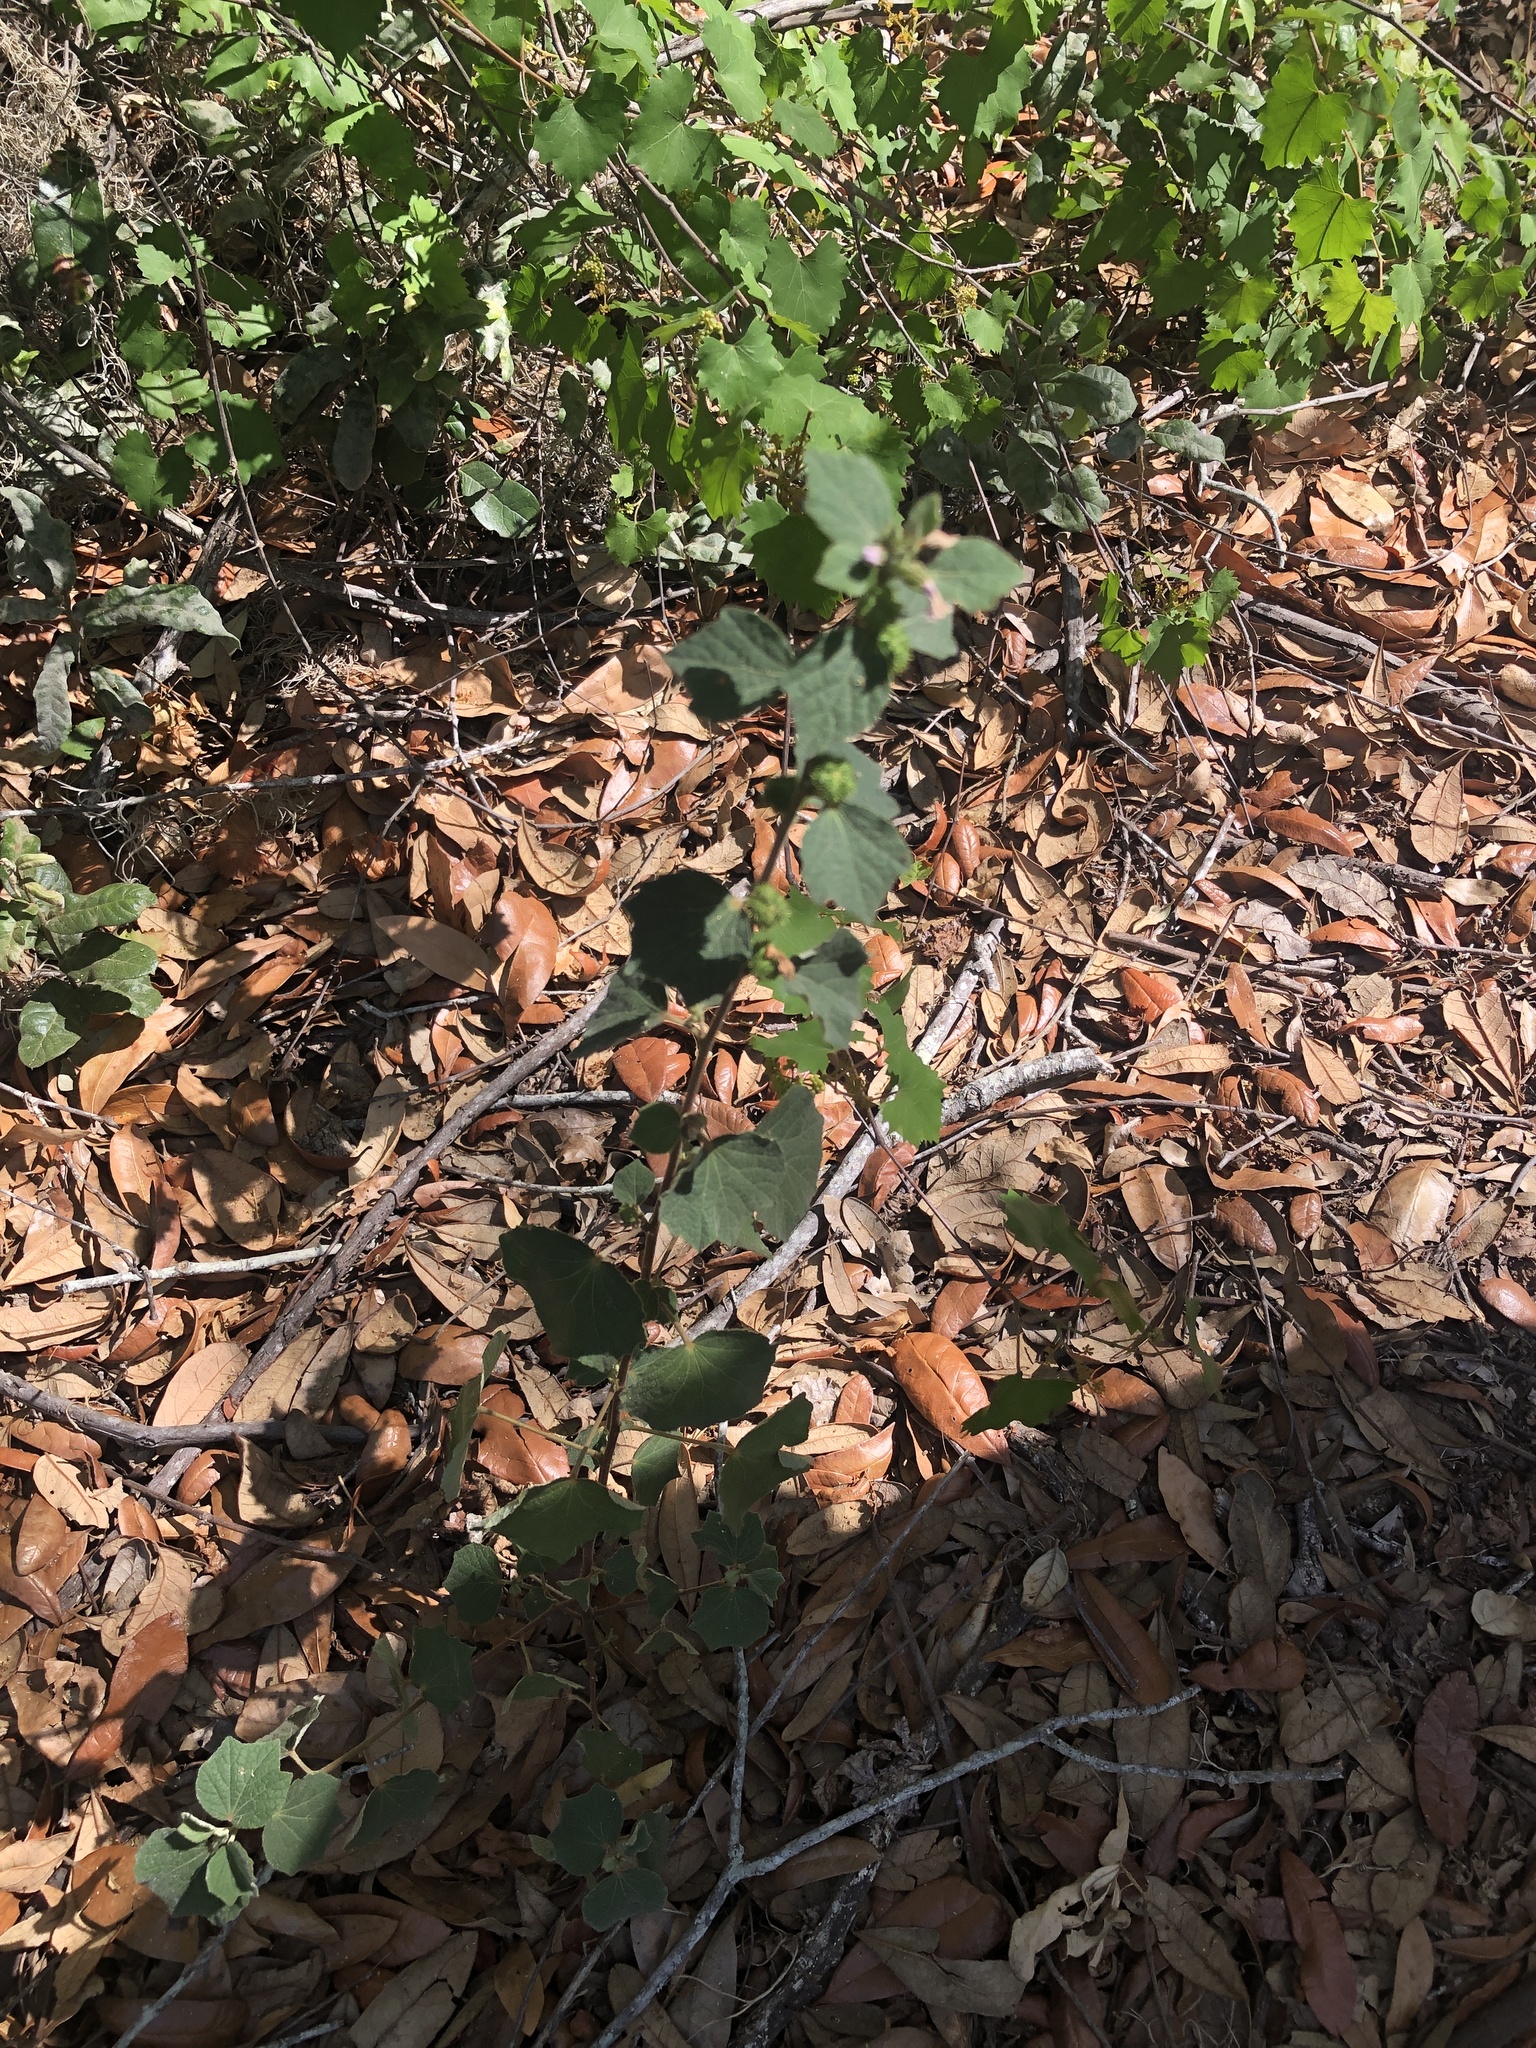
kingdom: Plantae
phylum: Tracheophyta
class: Magnoliopsida
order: Malvales
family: Malvaceae
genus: Urena
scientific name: Urena lobata
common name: Caesarweed
